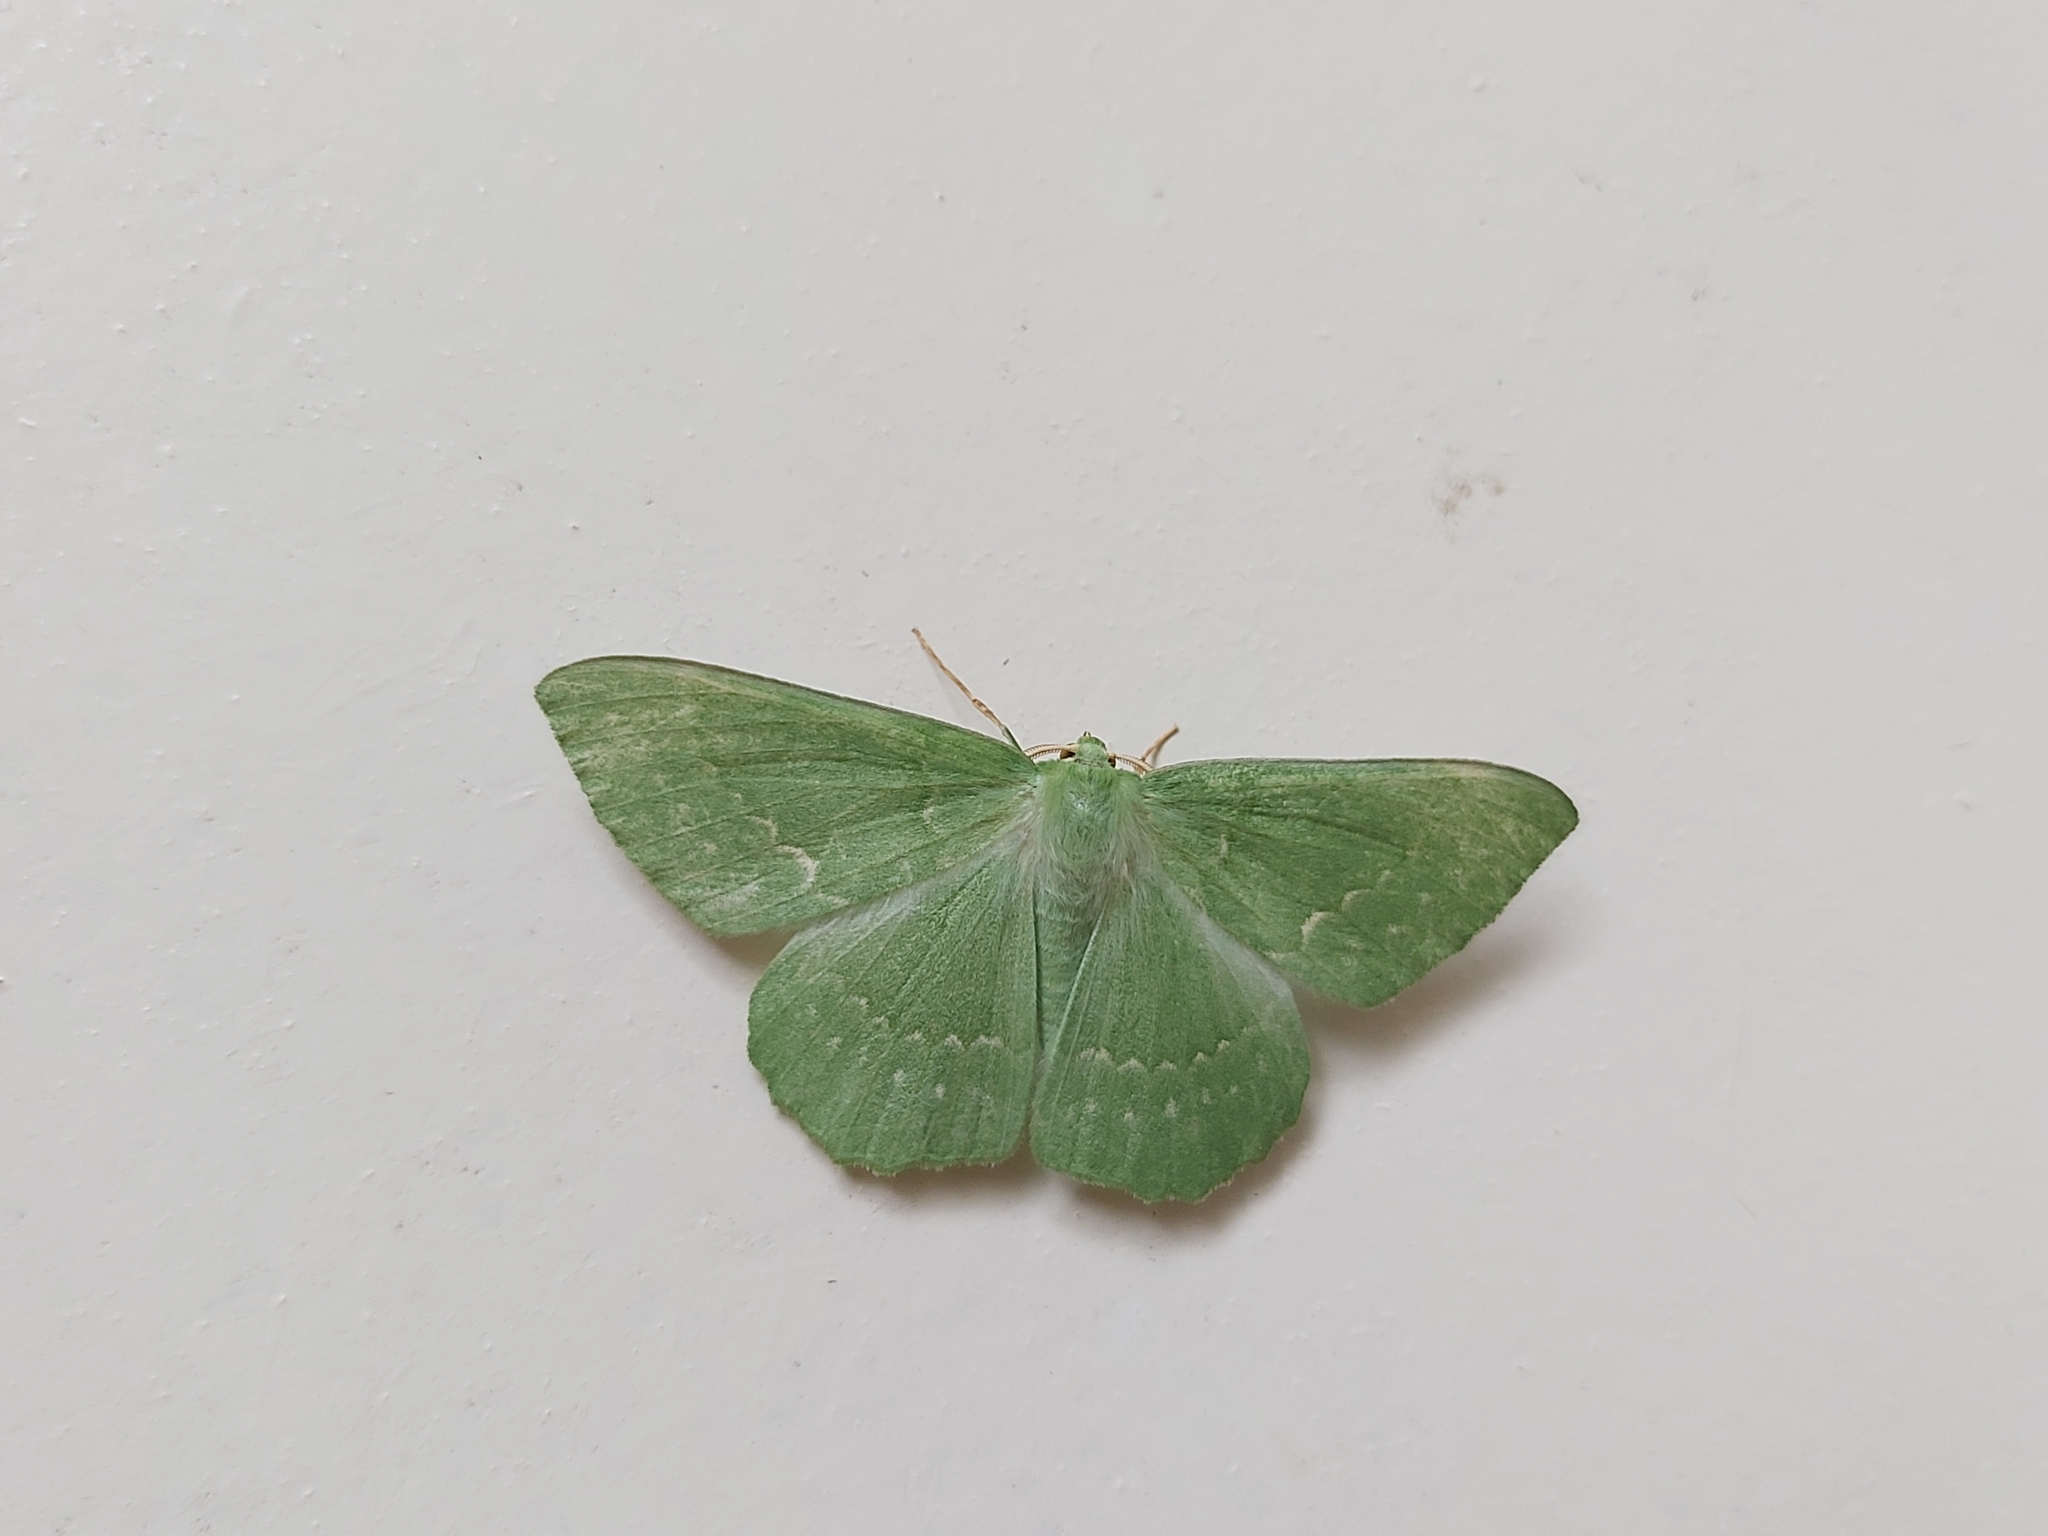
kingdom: Animalia
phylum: Arthropoda
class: Insecta
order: Lepidoptera
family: Geometridae
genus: Geometra
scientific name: Geometra papilionaria
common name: Large emerald
